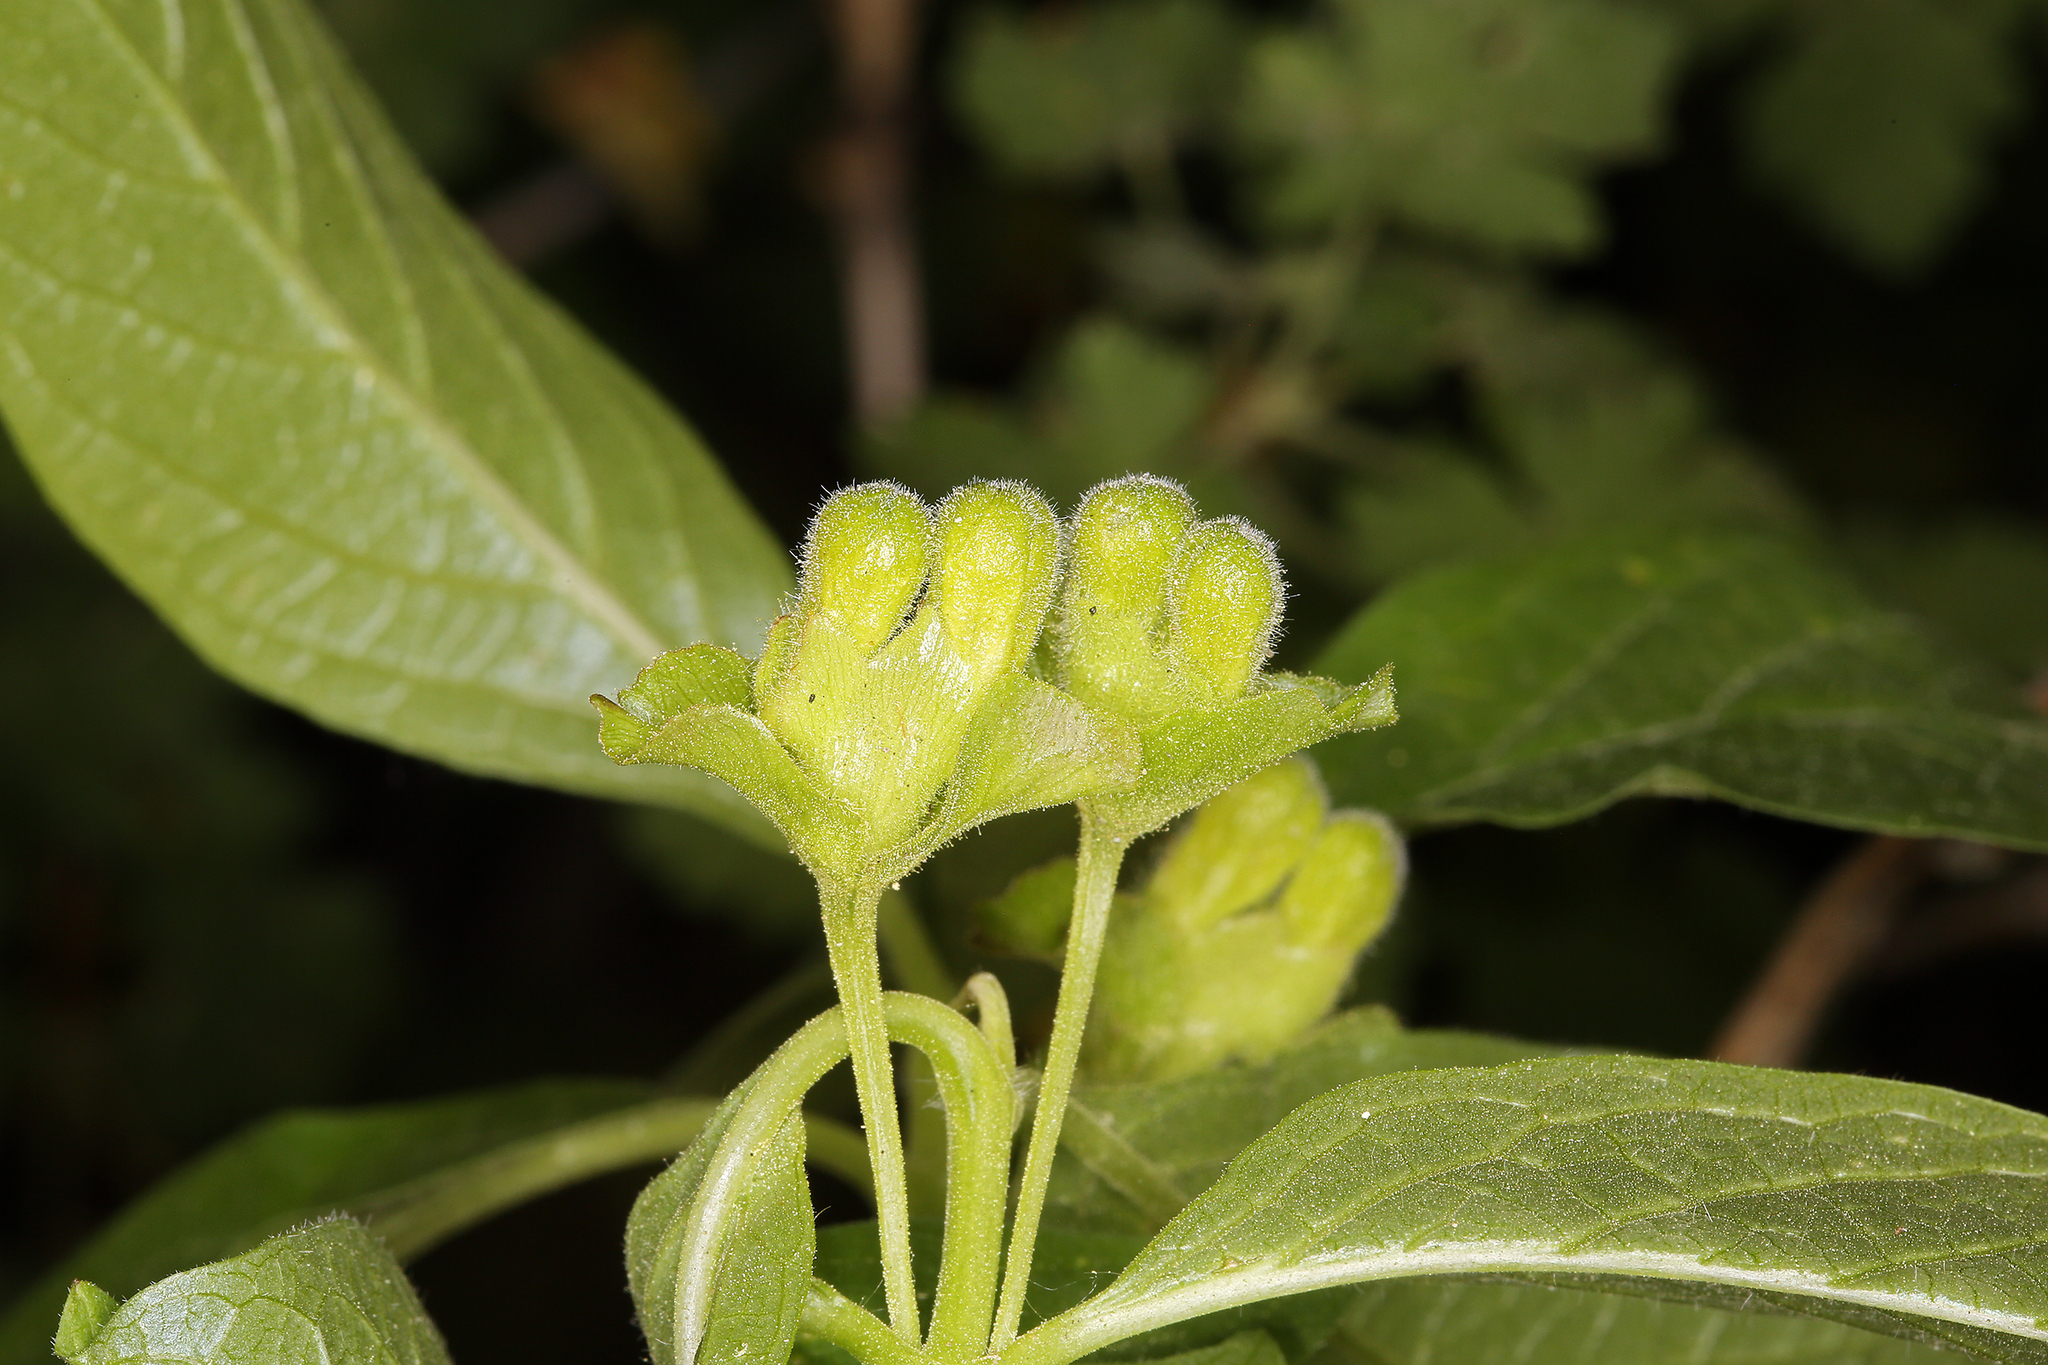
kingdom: Plantae
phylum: Tracheophyta
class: Magnoliopsida
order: Dipsacales
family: Caprifoliaceae
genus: Lonicera
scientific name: Lonicera involucrata
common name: Californian honeysuckle
